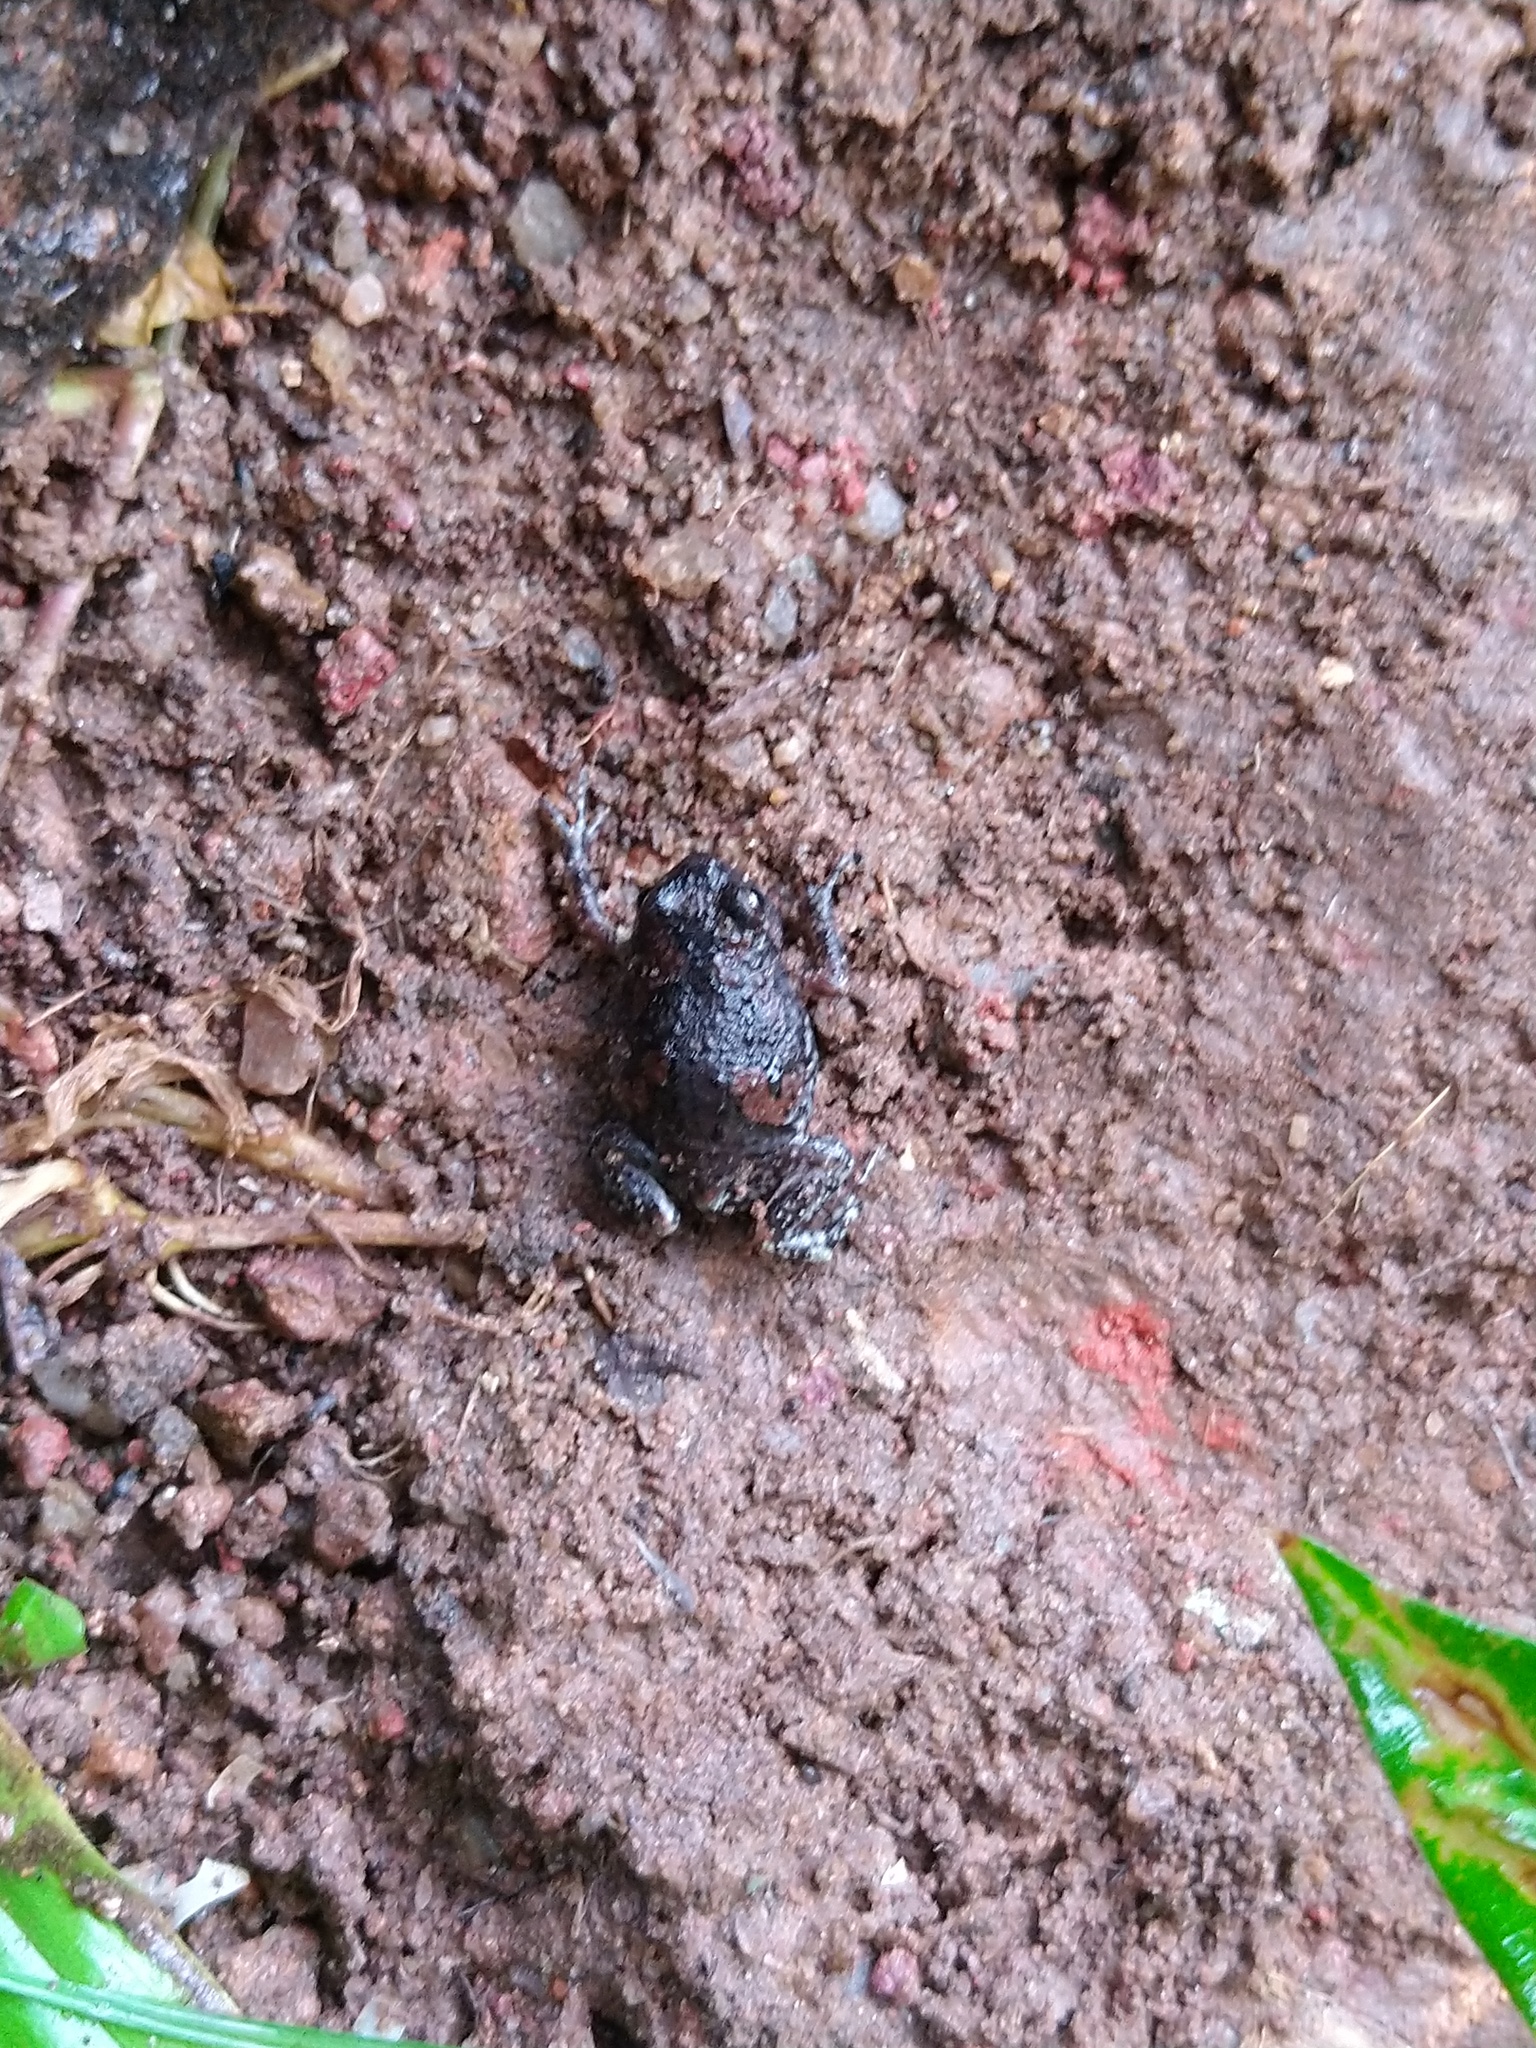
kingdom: Animalia
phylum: Chordata
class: Amphibia
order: Anura
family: Microhylidae
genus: Uperodon
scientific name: Uperodon taprobanicus
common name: Ceylon kaloula
